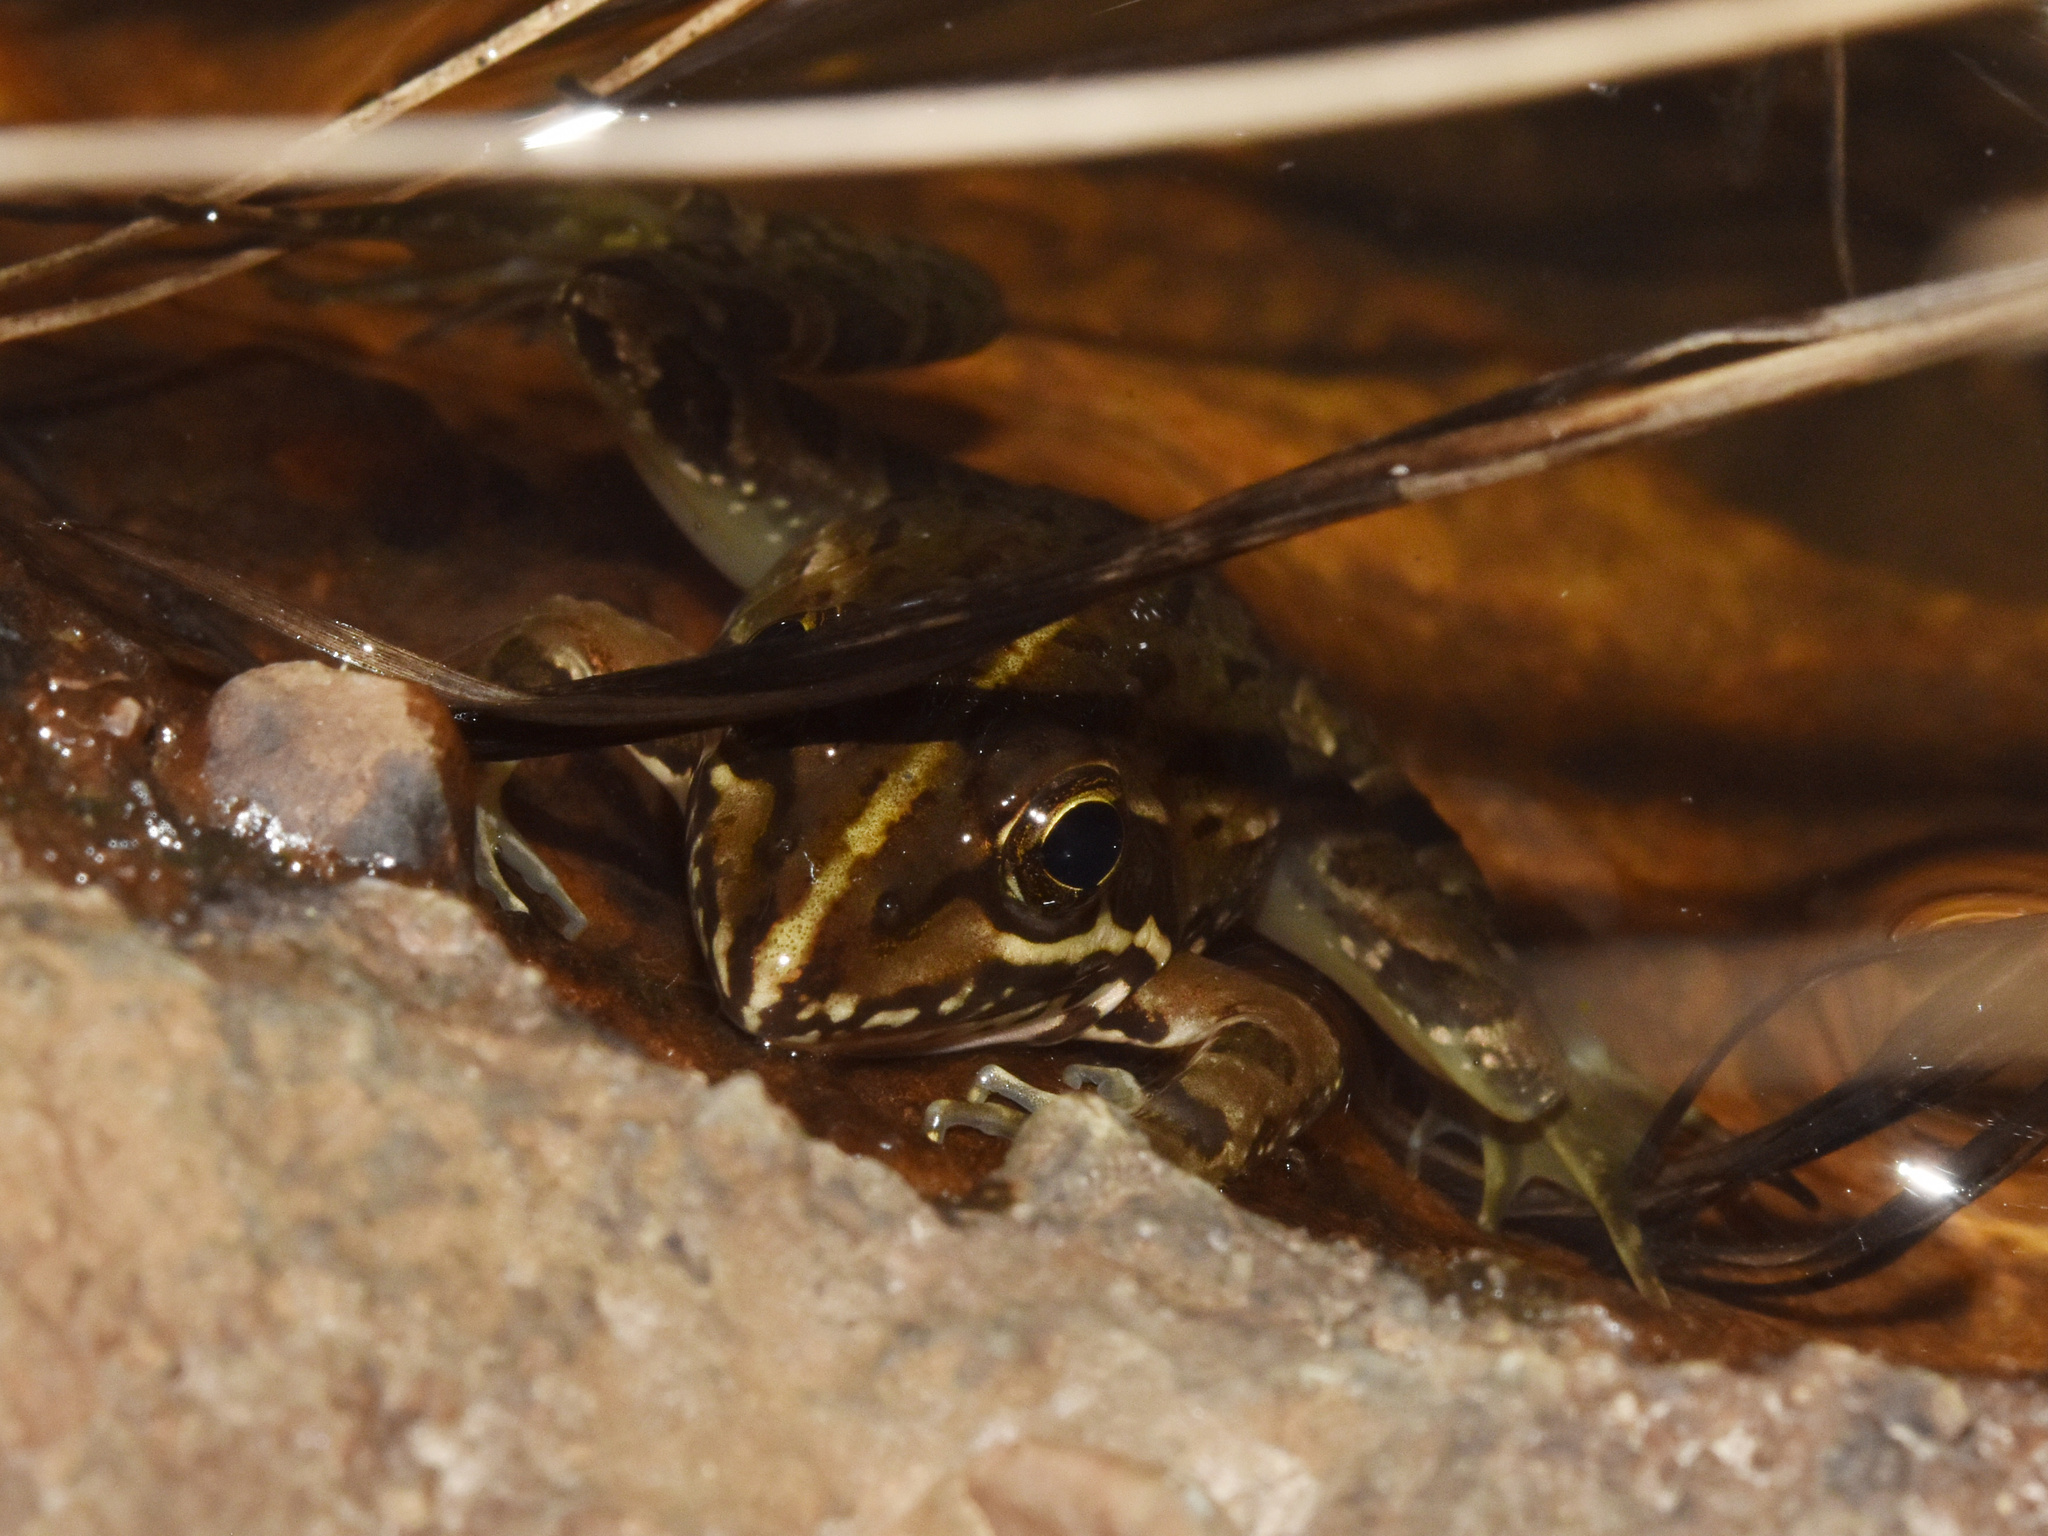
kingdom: Animalia
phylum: Chordata
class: Amphibia
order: Anura
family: Pyxicephalidae
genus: Amietia
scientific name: Amietia delalandii
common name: Delalande's river frog
